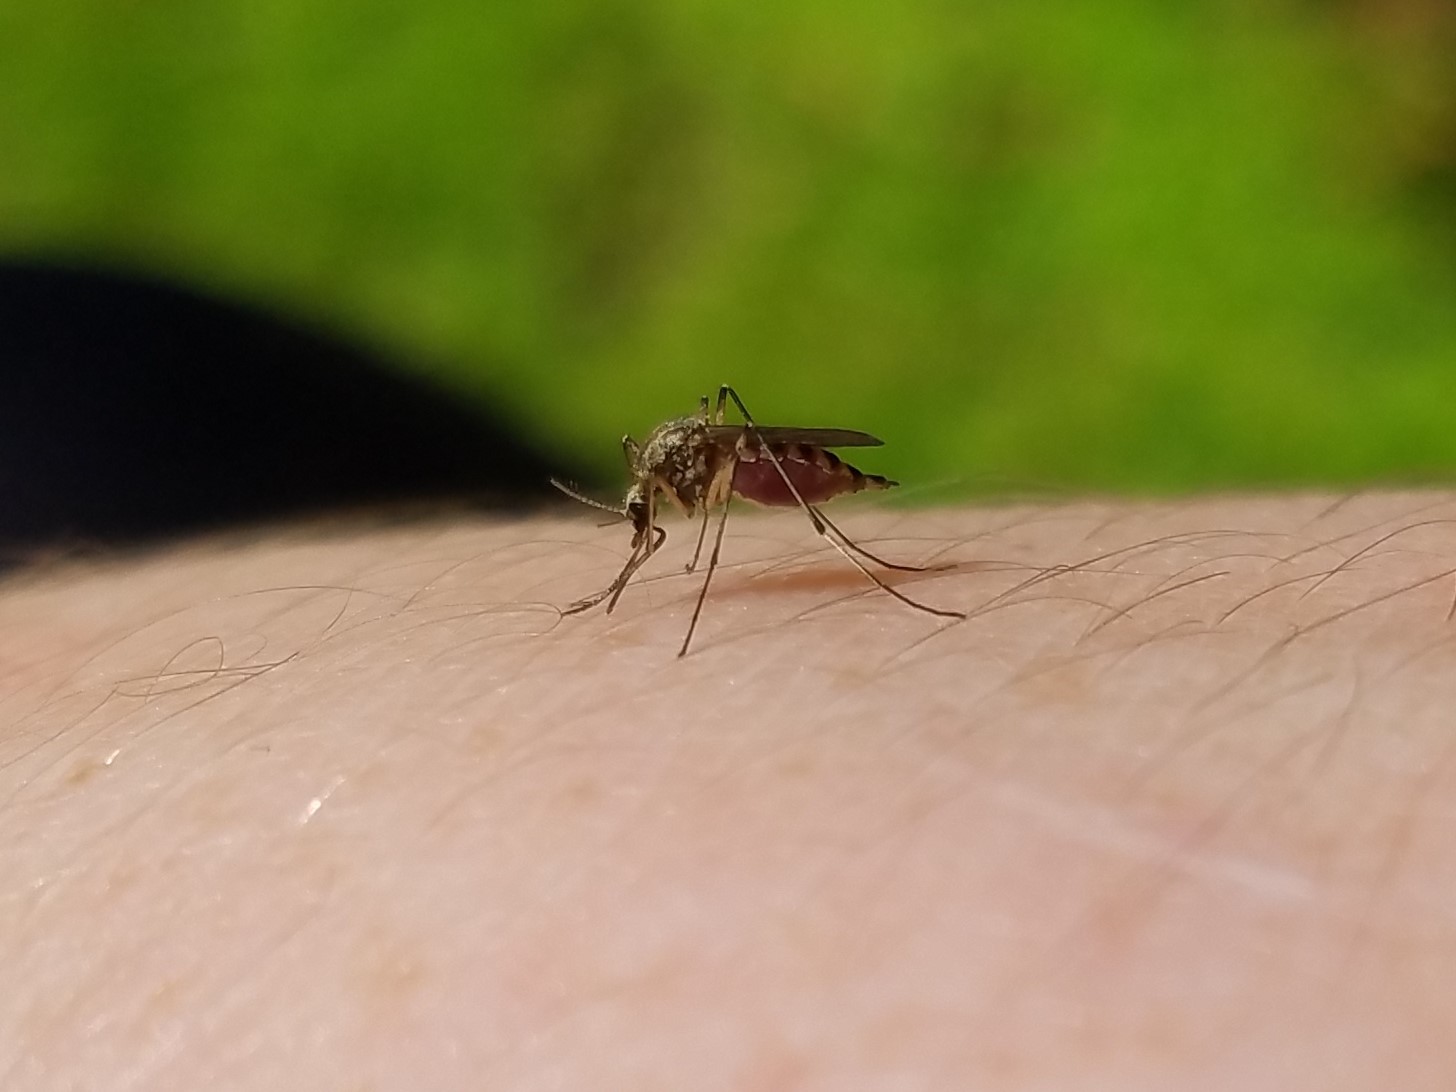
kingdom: Animalia
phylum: Arthropoda
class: Insecta
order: Diptera
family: Culicidae
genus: Aedes
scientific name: Aedes trivittatus
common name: Plains floodwater mosquito
